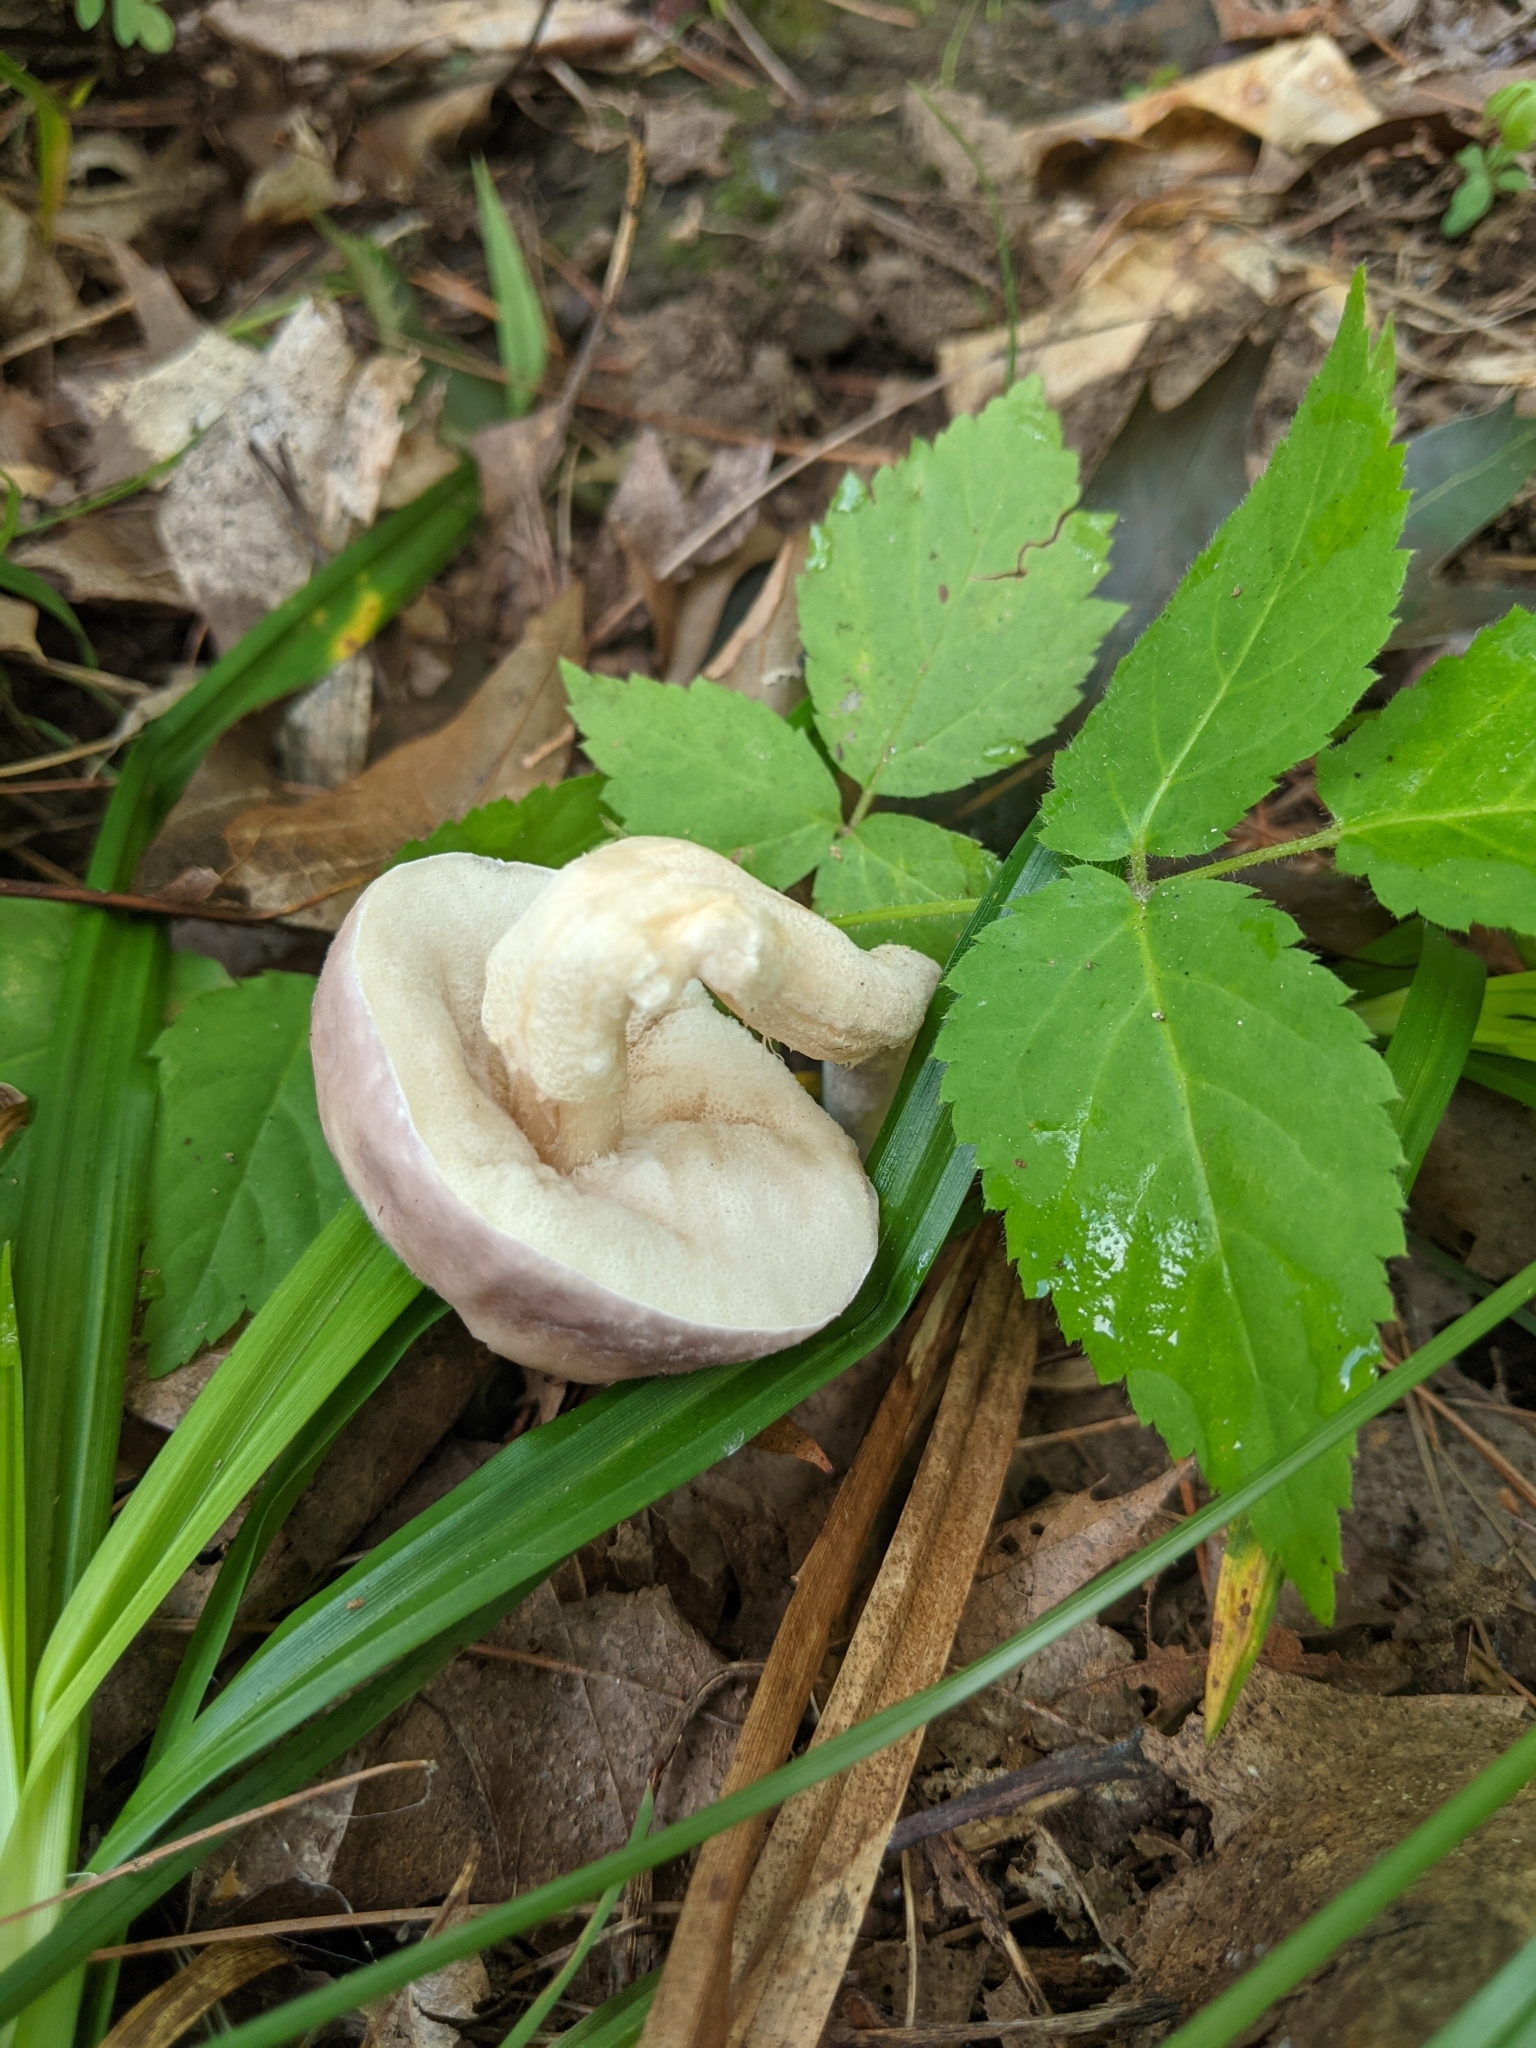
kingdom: Fungi
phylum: Basidiomycota
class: Agaricomycetes
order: Boletales
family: Boletaceae
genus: Harrya
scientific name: Harrya chromipes
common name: Chrome-footed bolete
